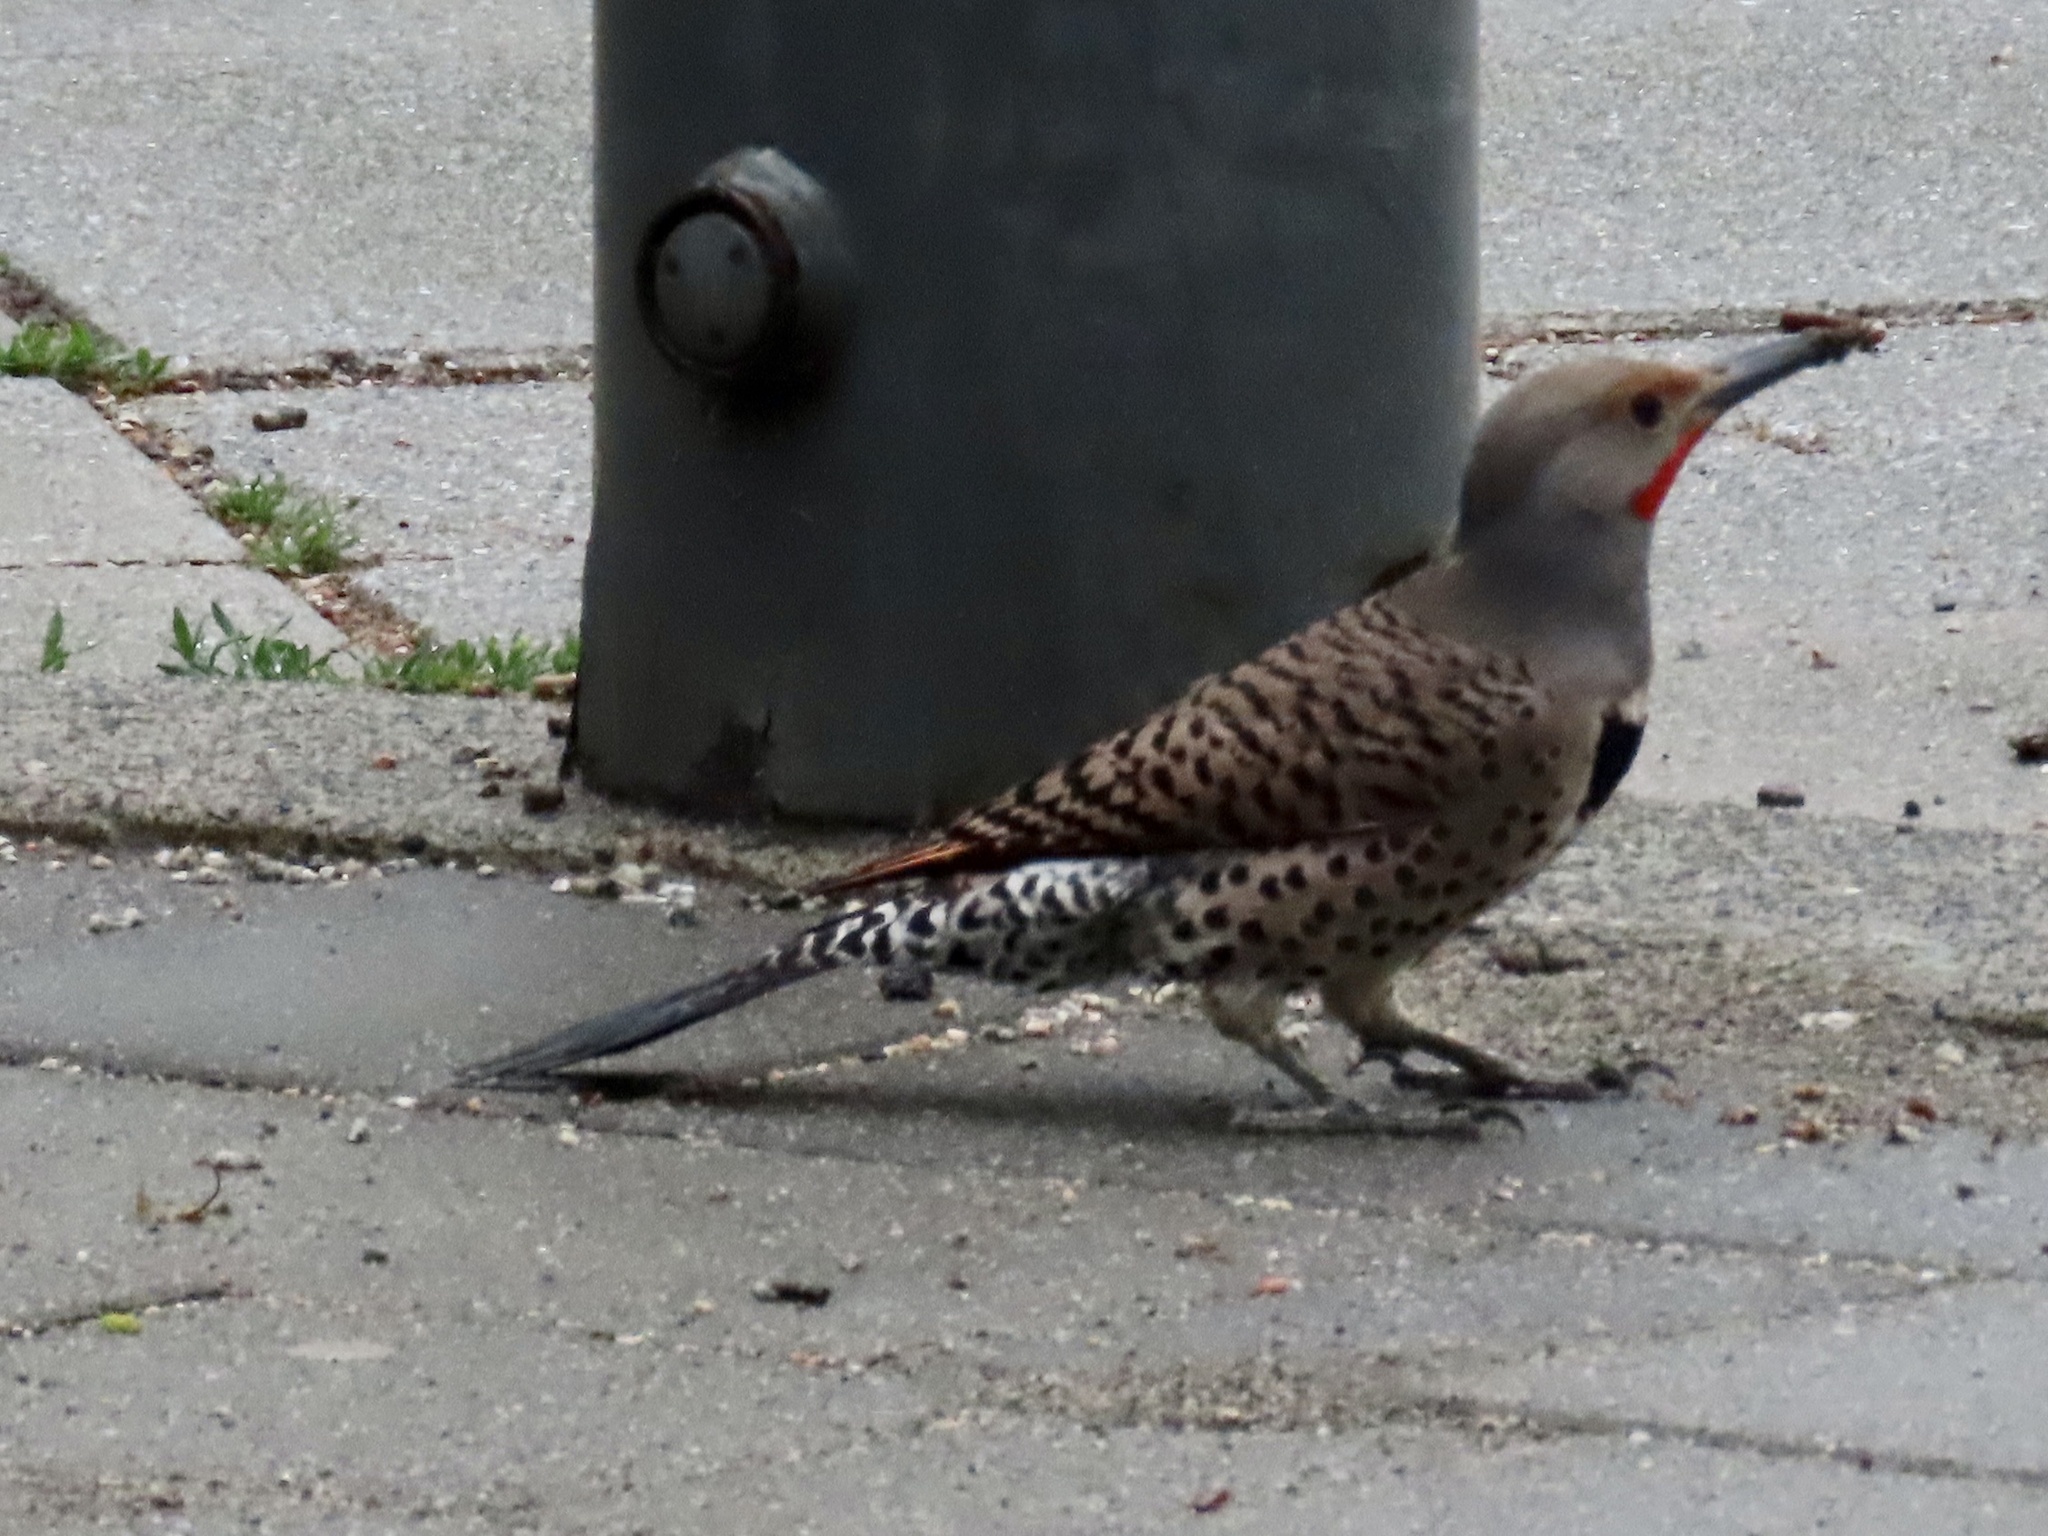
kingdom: Animalia
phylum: Chordata
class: Aves
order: Piciformes
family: Picidae
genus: Colaptes
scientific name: Colaptes auratus
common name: Northern flicker
